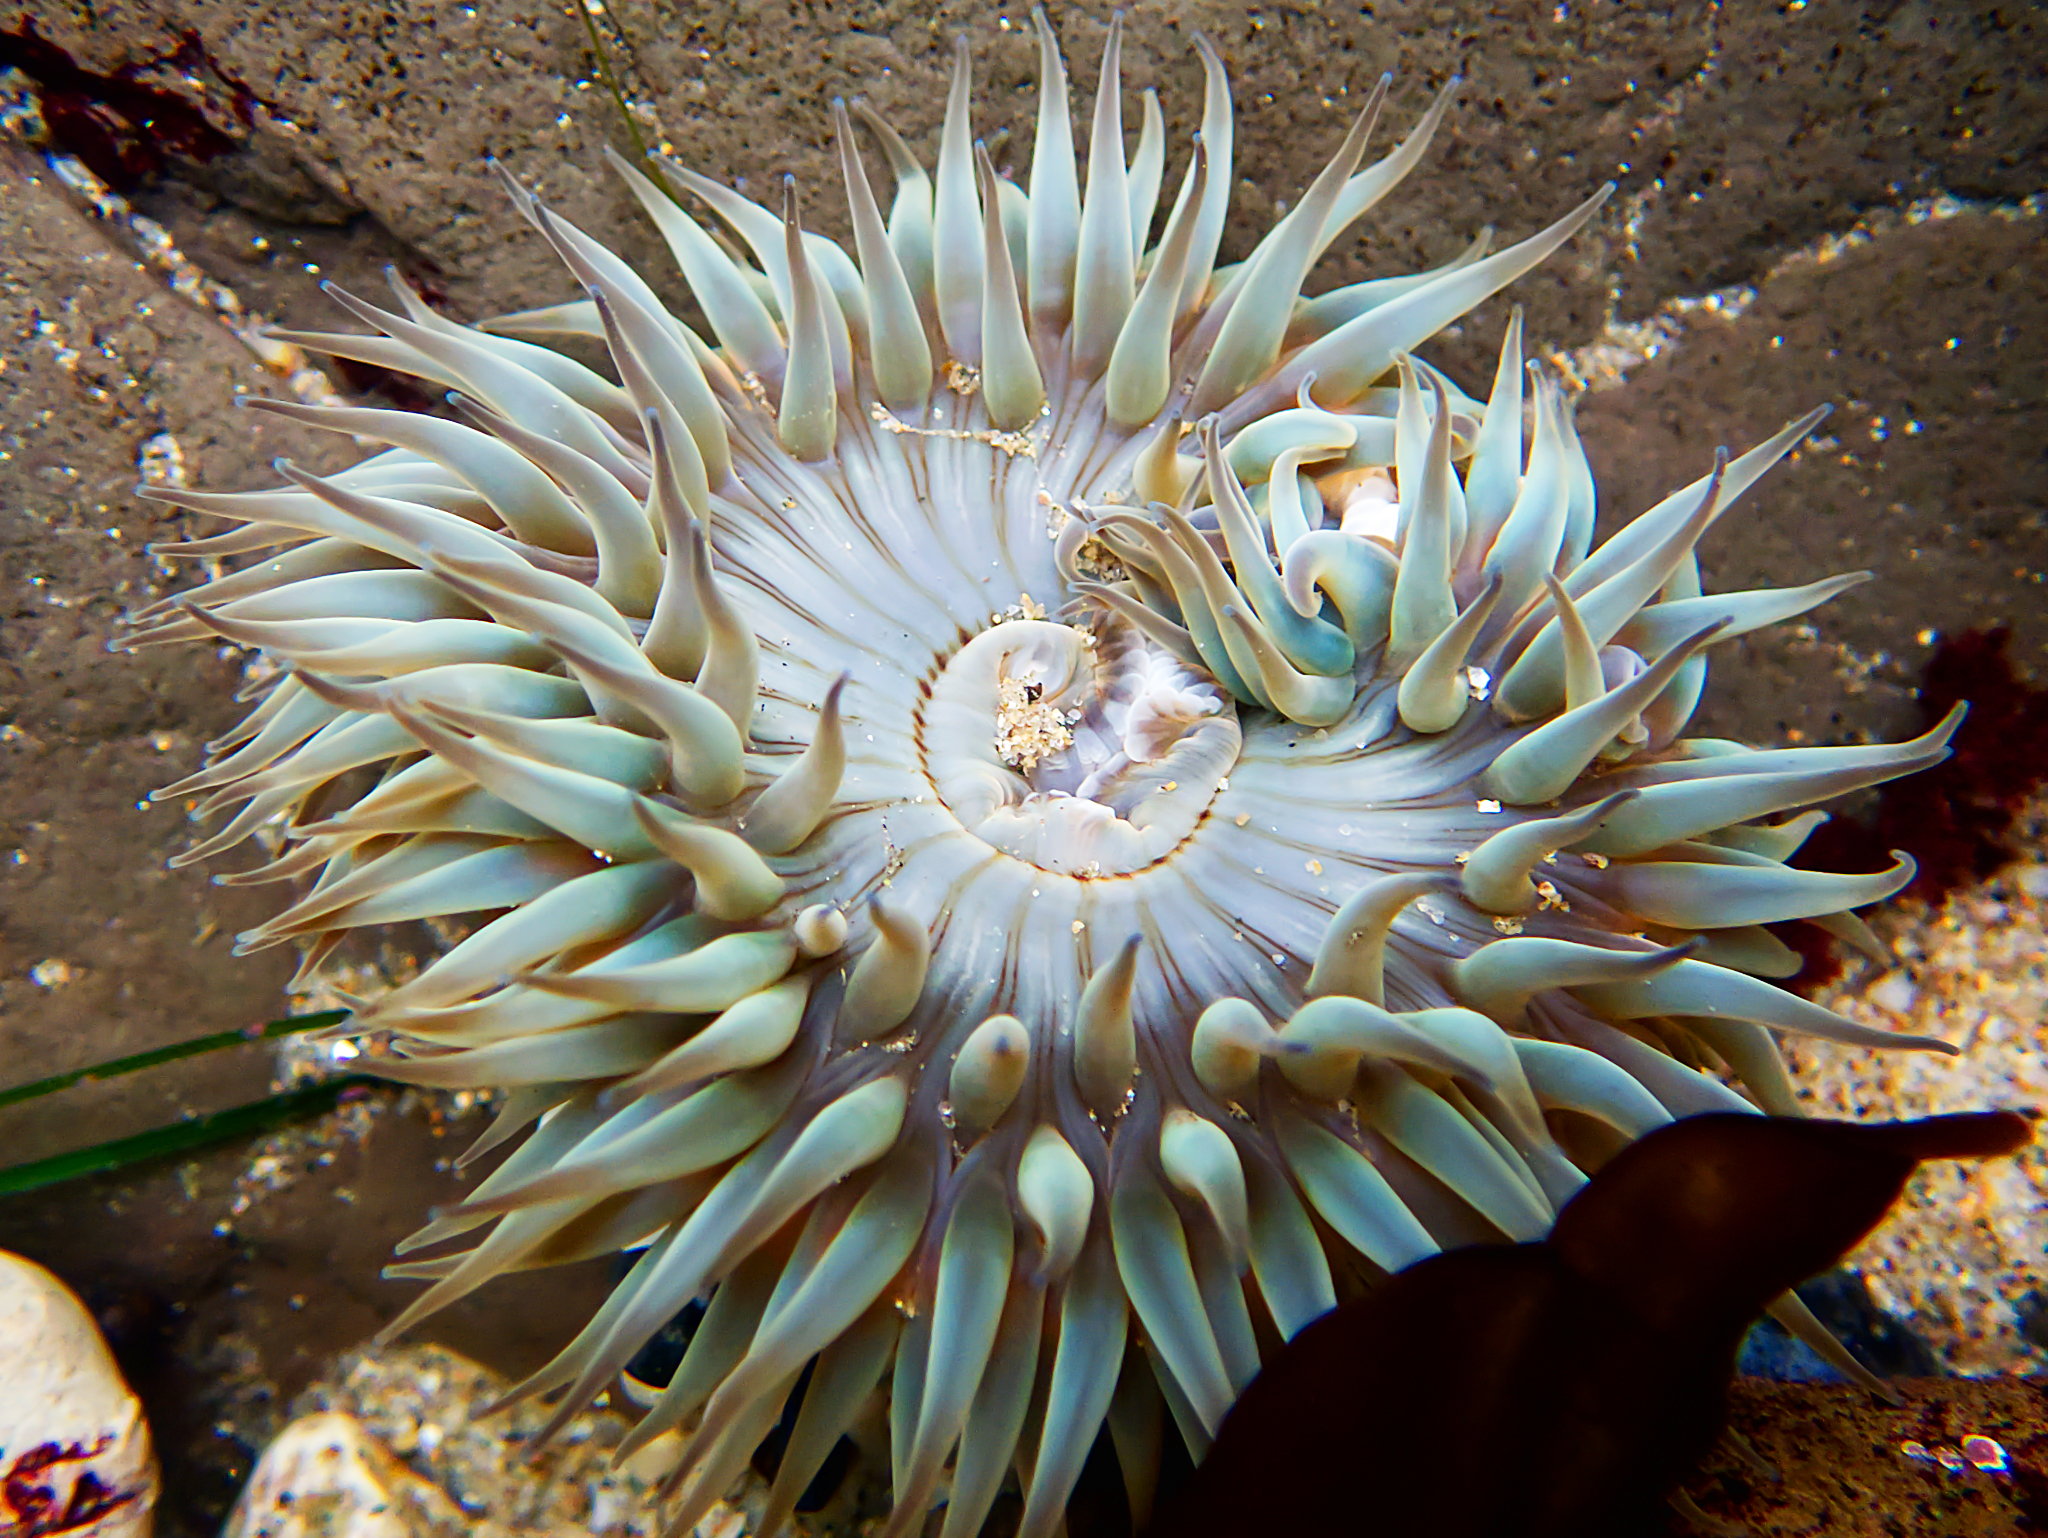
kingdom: Animalia
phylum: Cnidaria
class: Anthozoa
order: Actiniaria
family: Actiniidae
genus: Anthopleura
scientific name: Anthopleura sola
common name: Sun anemone
